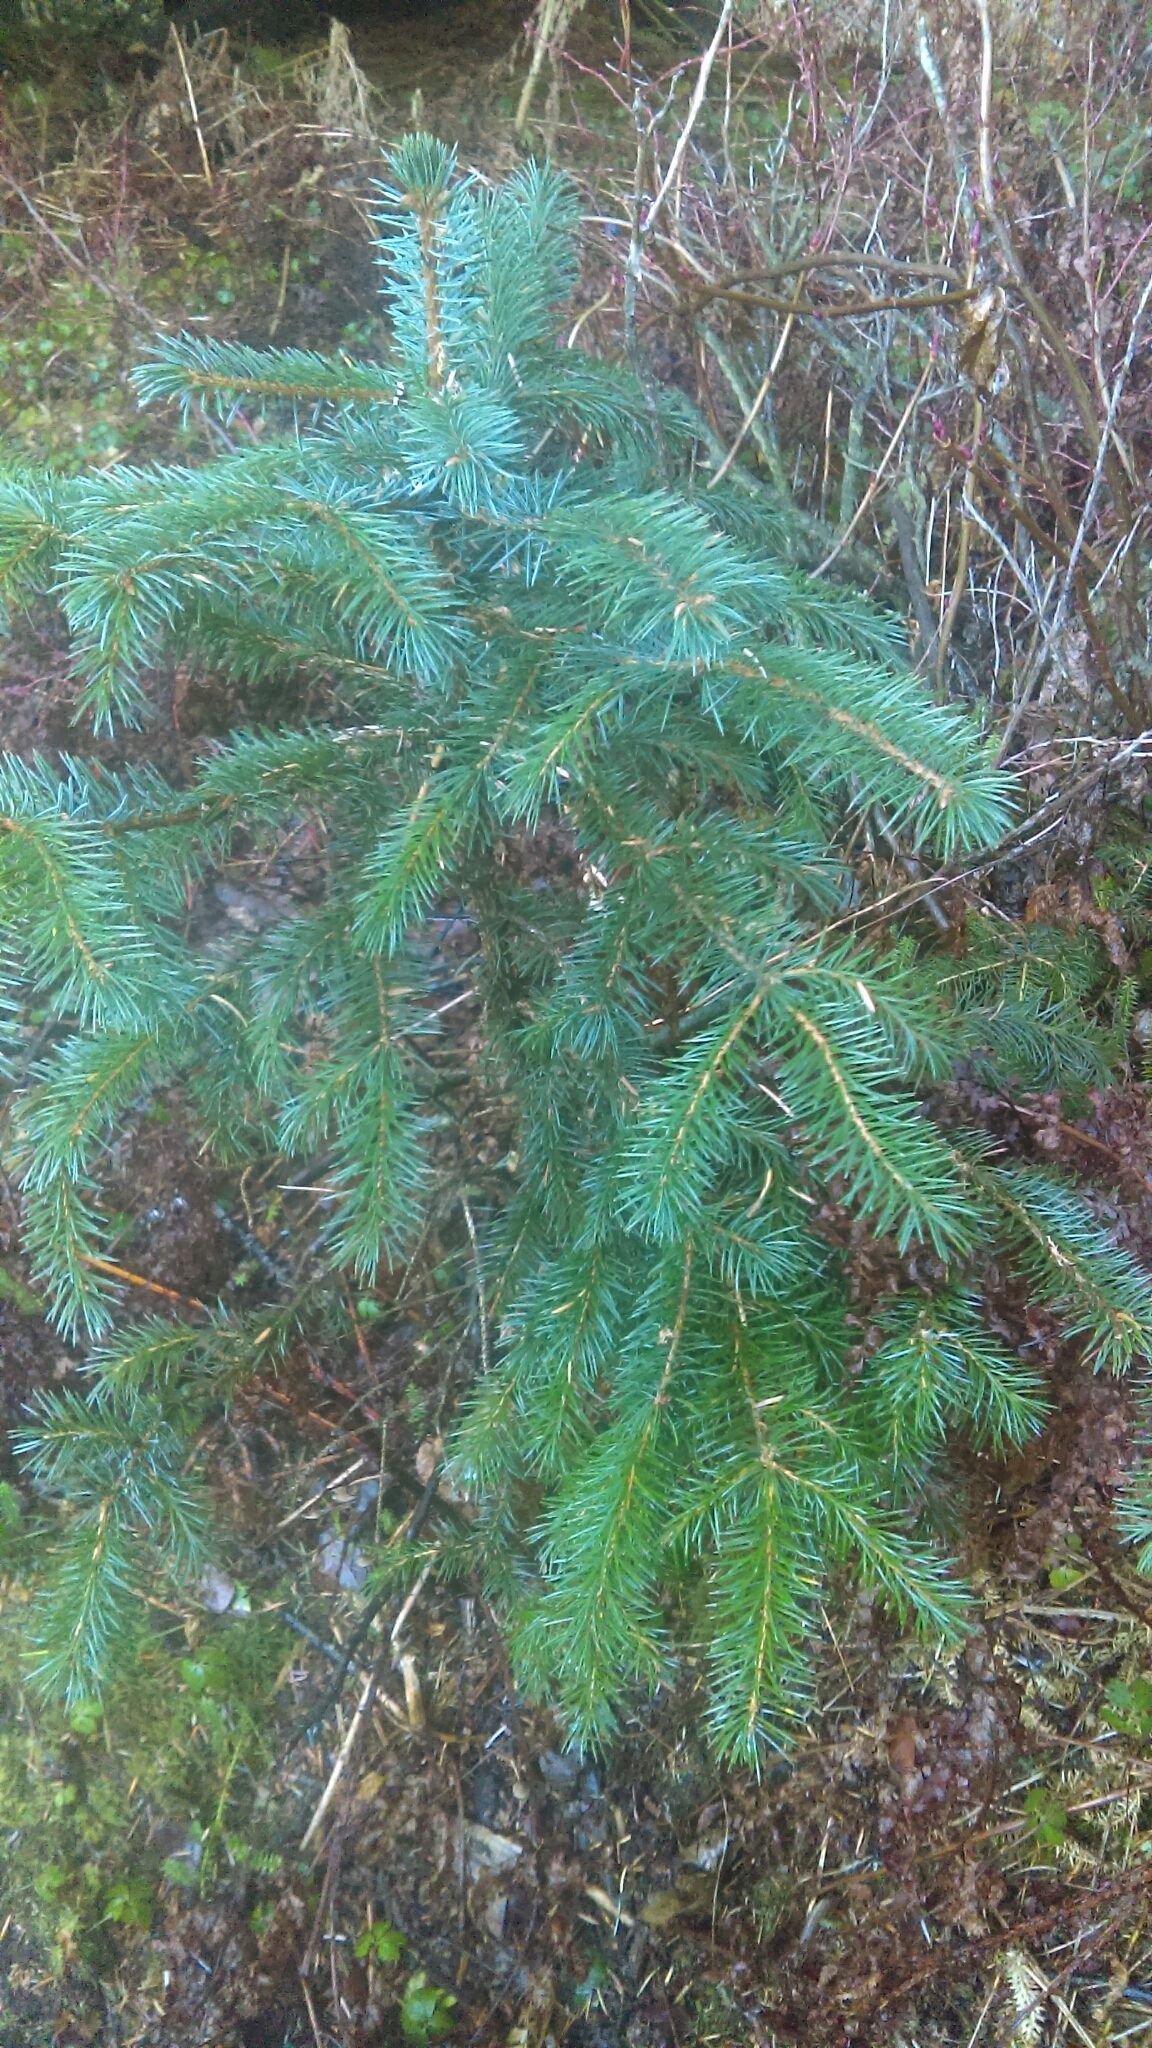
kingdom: Plantae
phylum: Tracheophyta
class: Pinopsida
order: Pinales
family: Pinaceae
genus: Picea
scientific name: Picea sitchensis
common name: Sitka spruce
